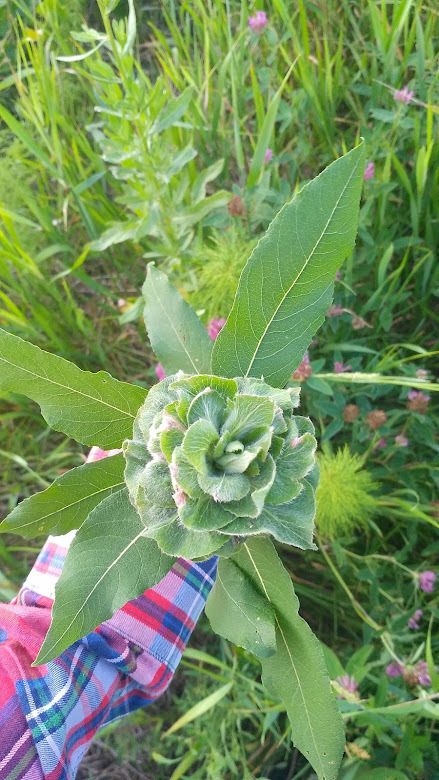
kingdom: Animalia
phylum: Arthropoda
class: Insecta
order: Diptera
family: Cecidomyiidae
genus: Rabdophaga
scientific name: Rabdophaga rosaria
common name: Willow rose gall midge
